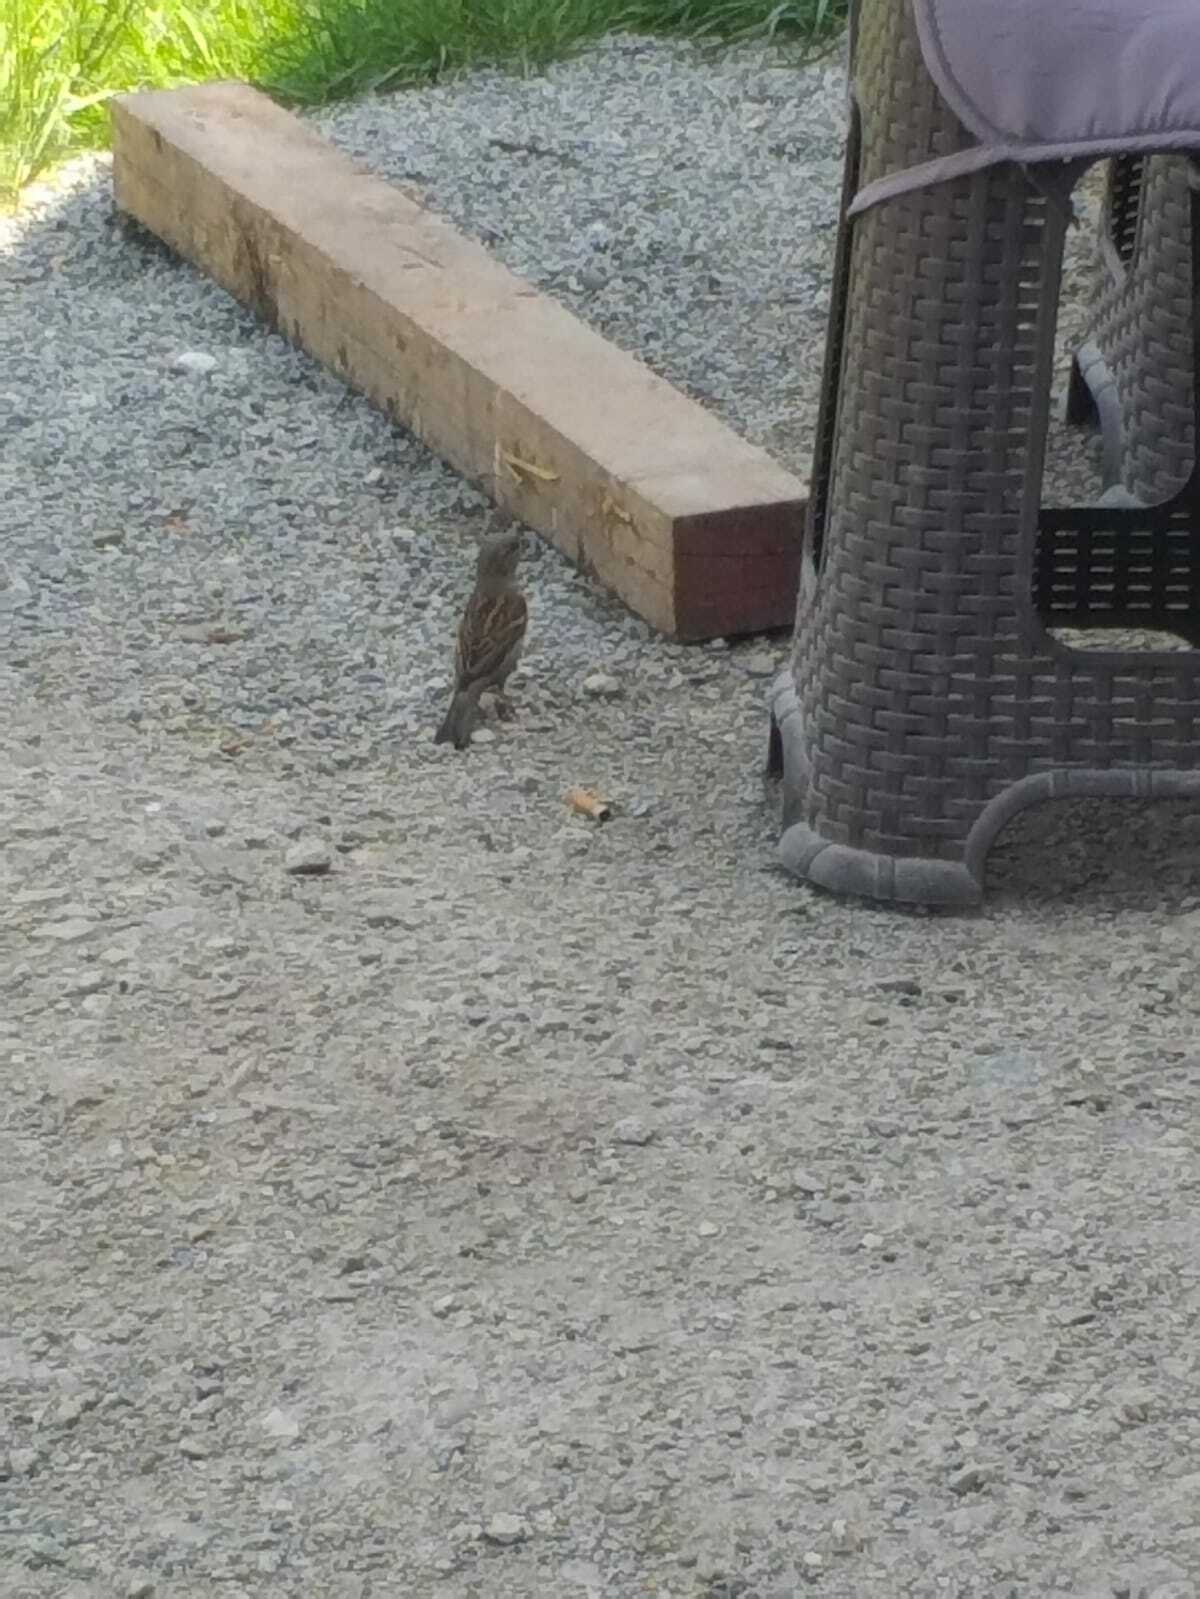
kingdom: Animalia
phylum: Chordata
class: Aves
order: Passeriformes
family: Passeridae
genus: Passer
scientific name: Passer domesticus
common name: House sparrow
